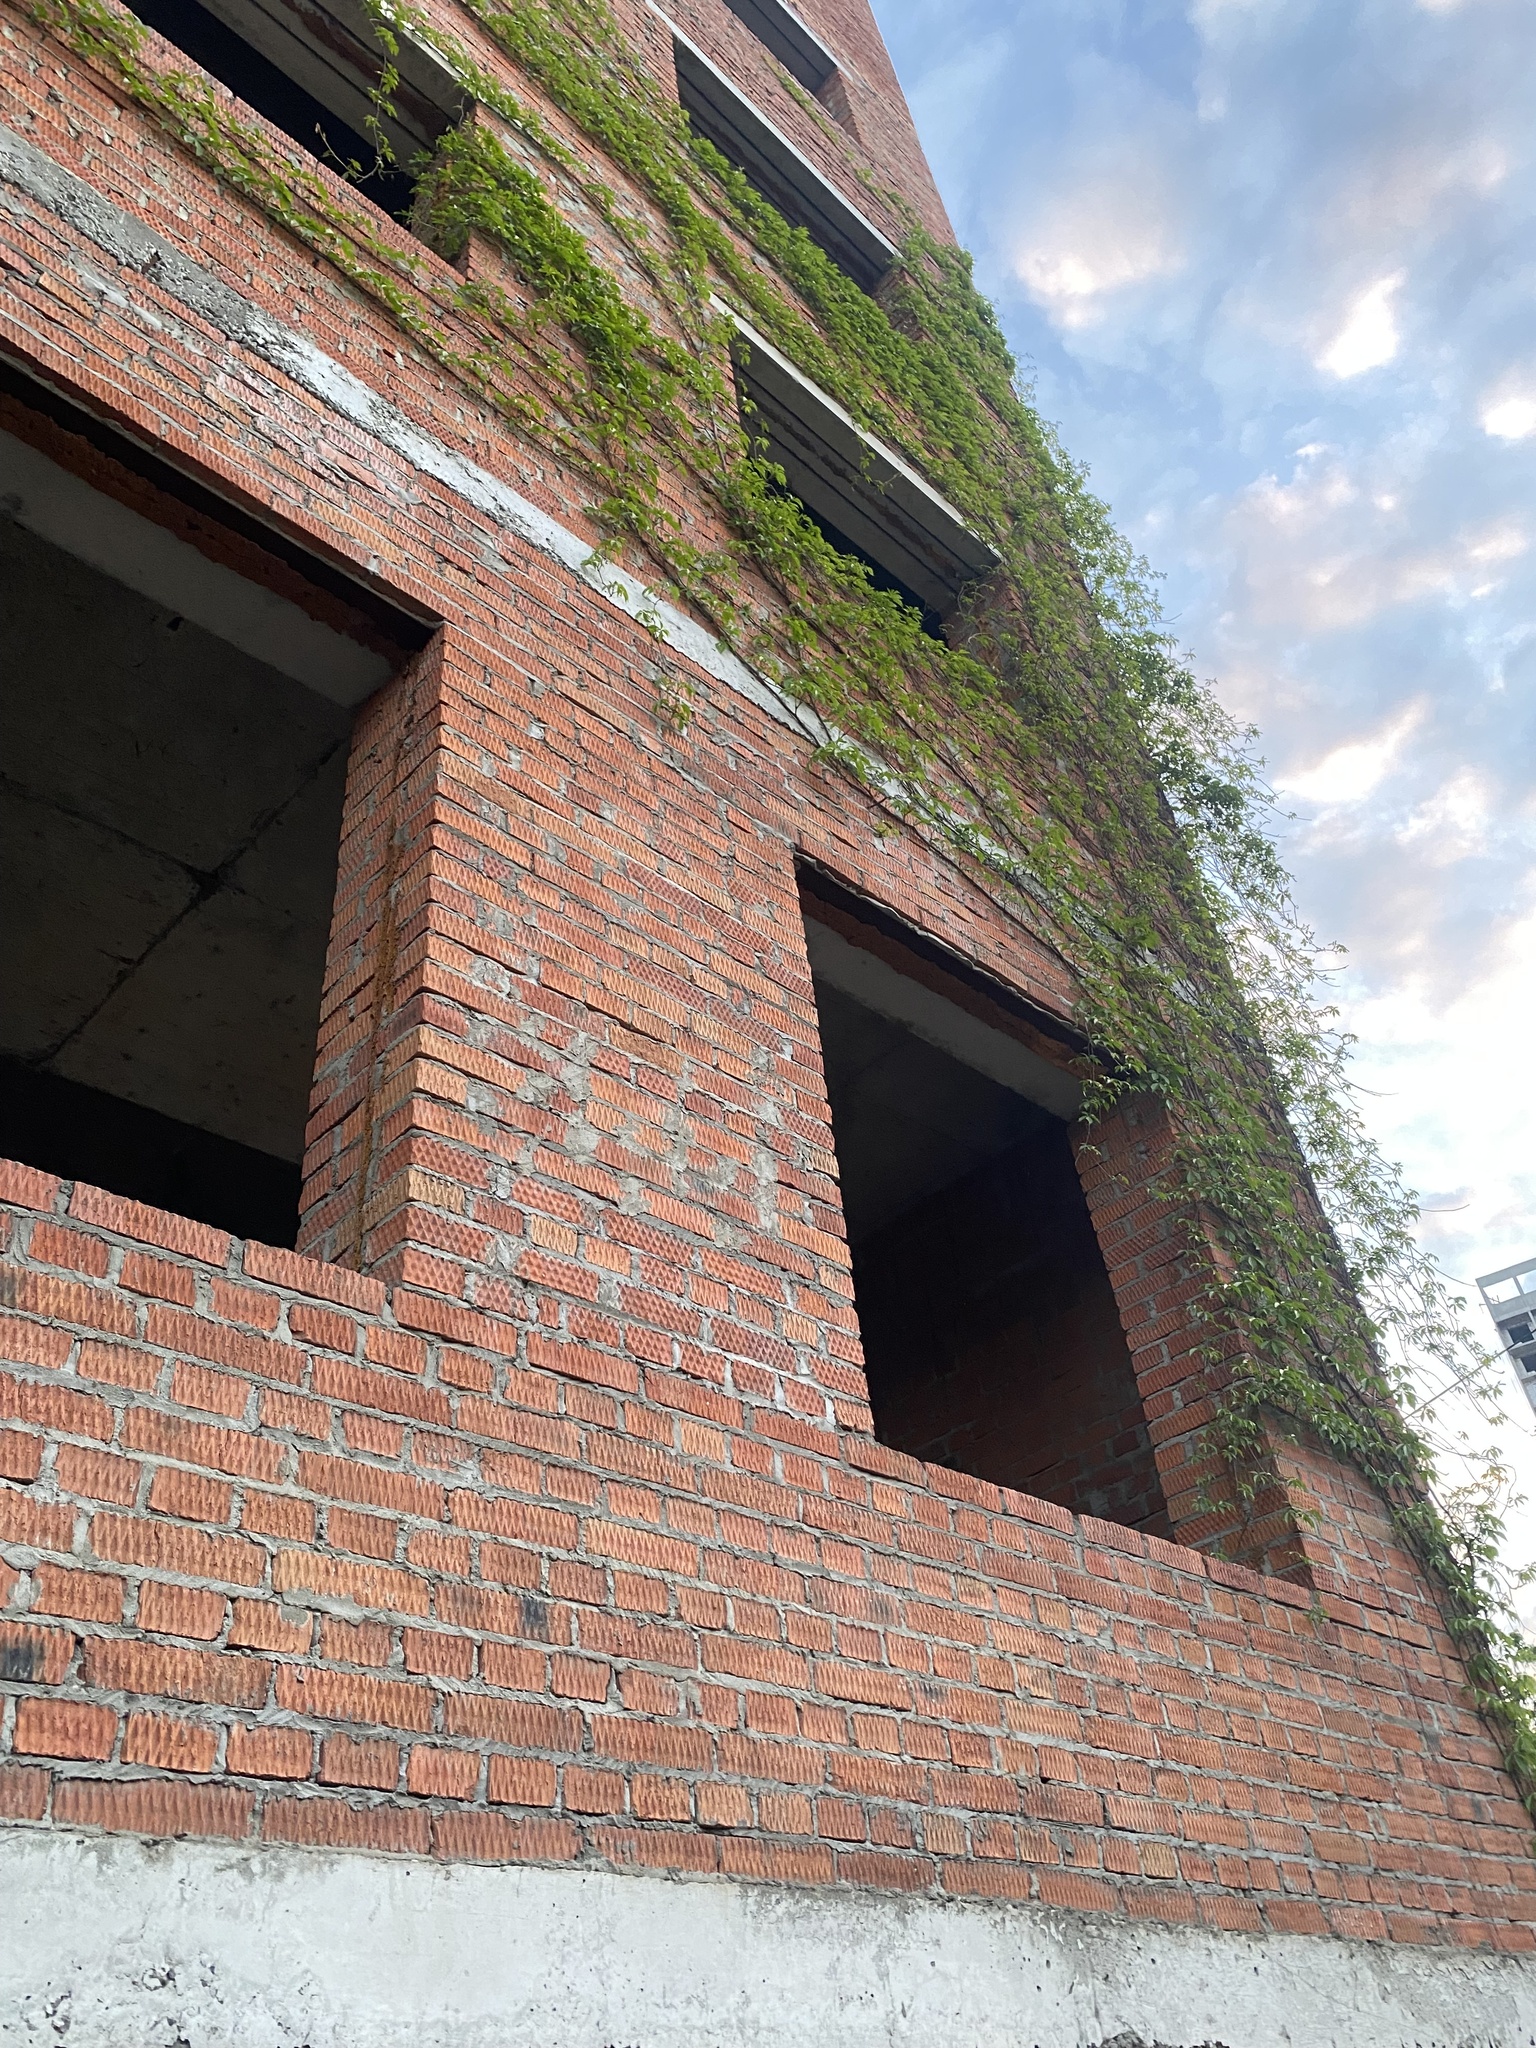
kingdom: Plantae
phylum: Tracheophyta
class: Magnoliopsida
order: Vitales
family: Vitaceae
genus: Parthenocissus
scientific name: Parthenocissus inserta
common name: False virginia-creeper
